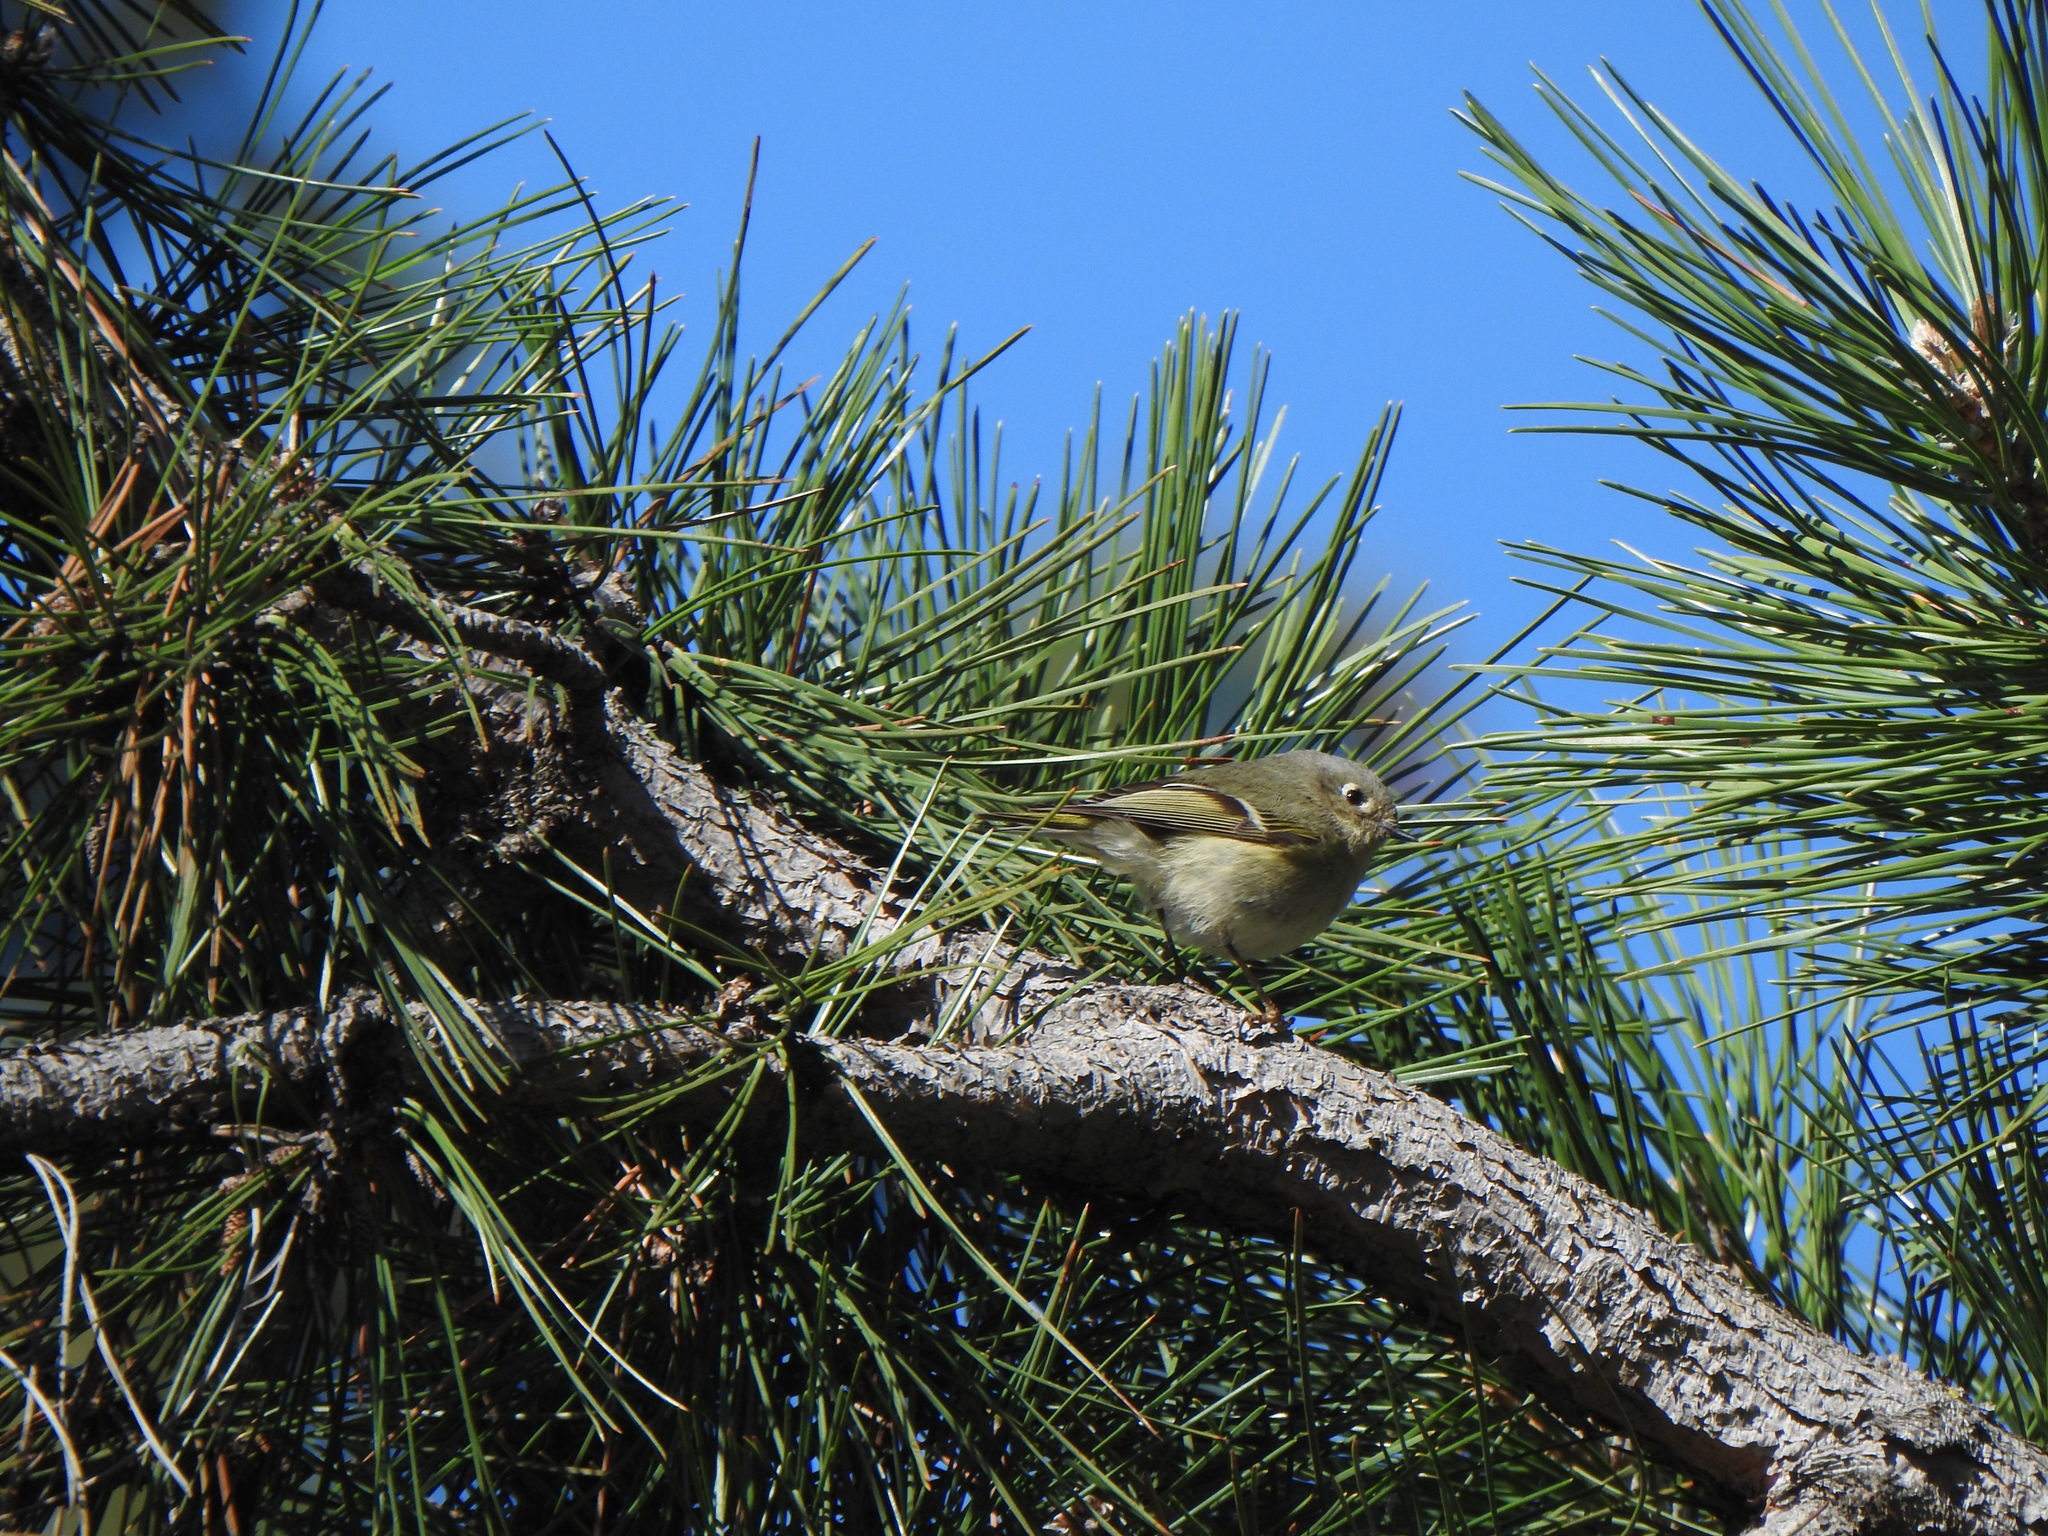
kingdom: Animalia
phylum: Chordata
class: Aves
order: Passeriformes
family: Regulidae
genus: Regulus
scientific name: Regulus calendula
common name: Ruby-crowned kinglet
